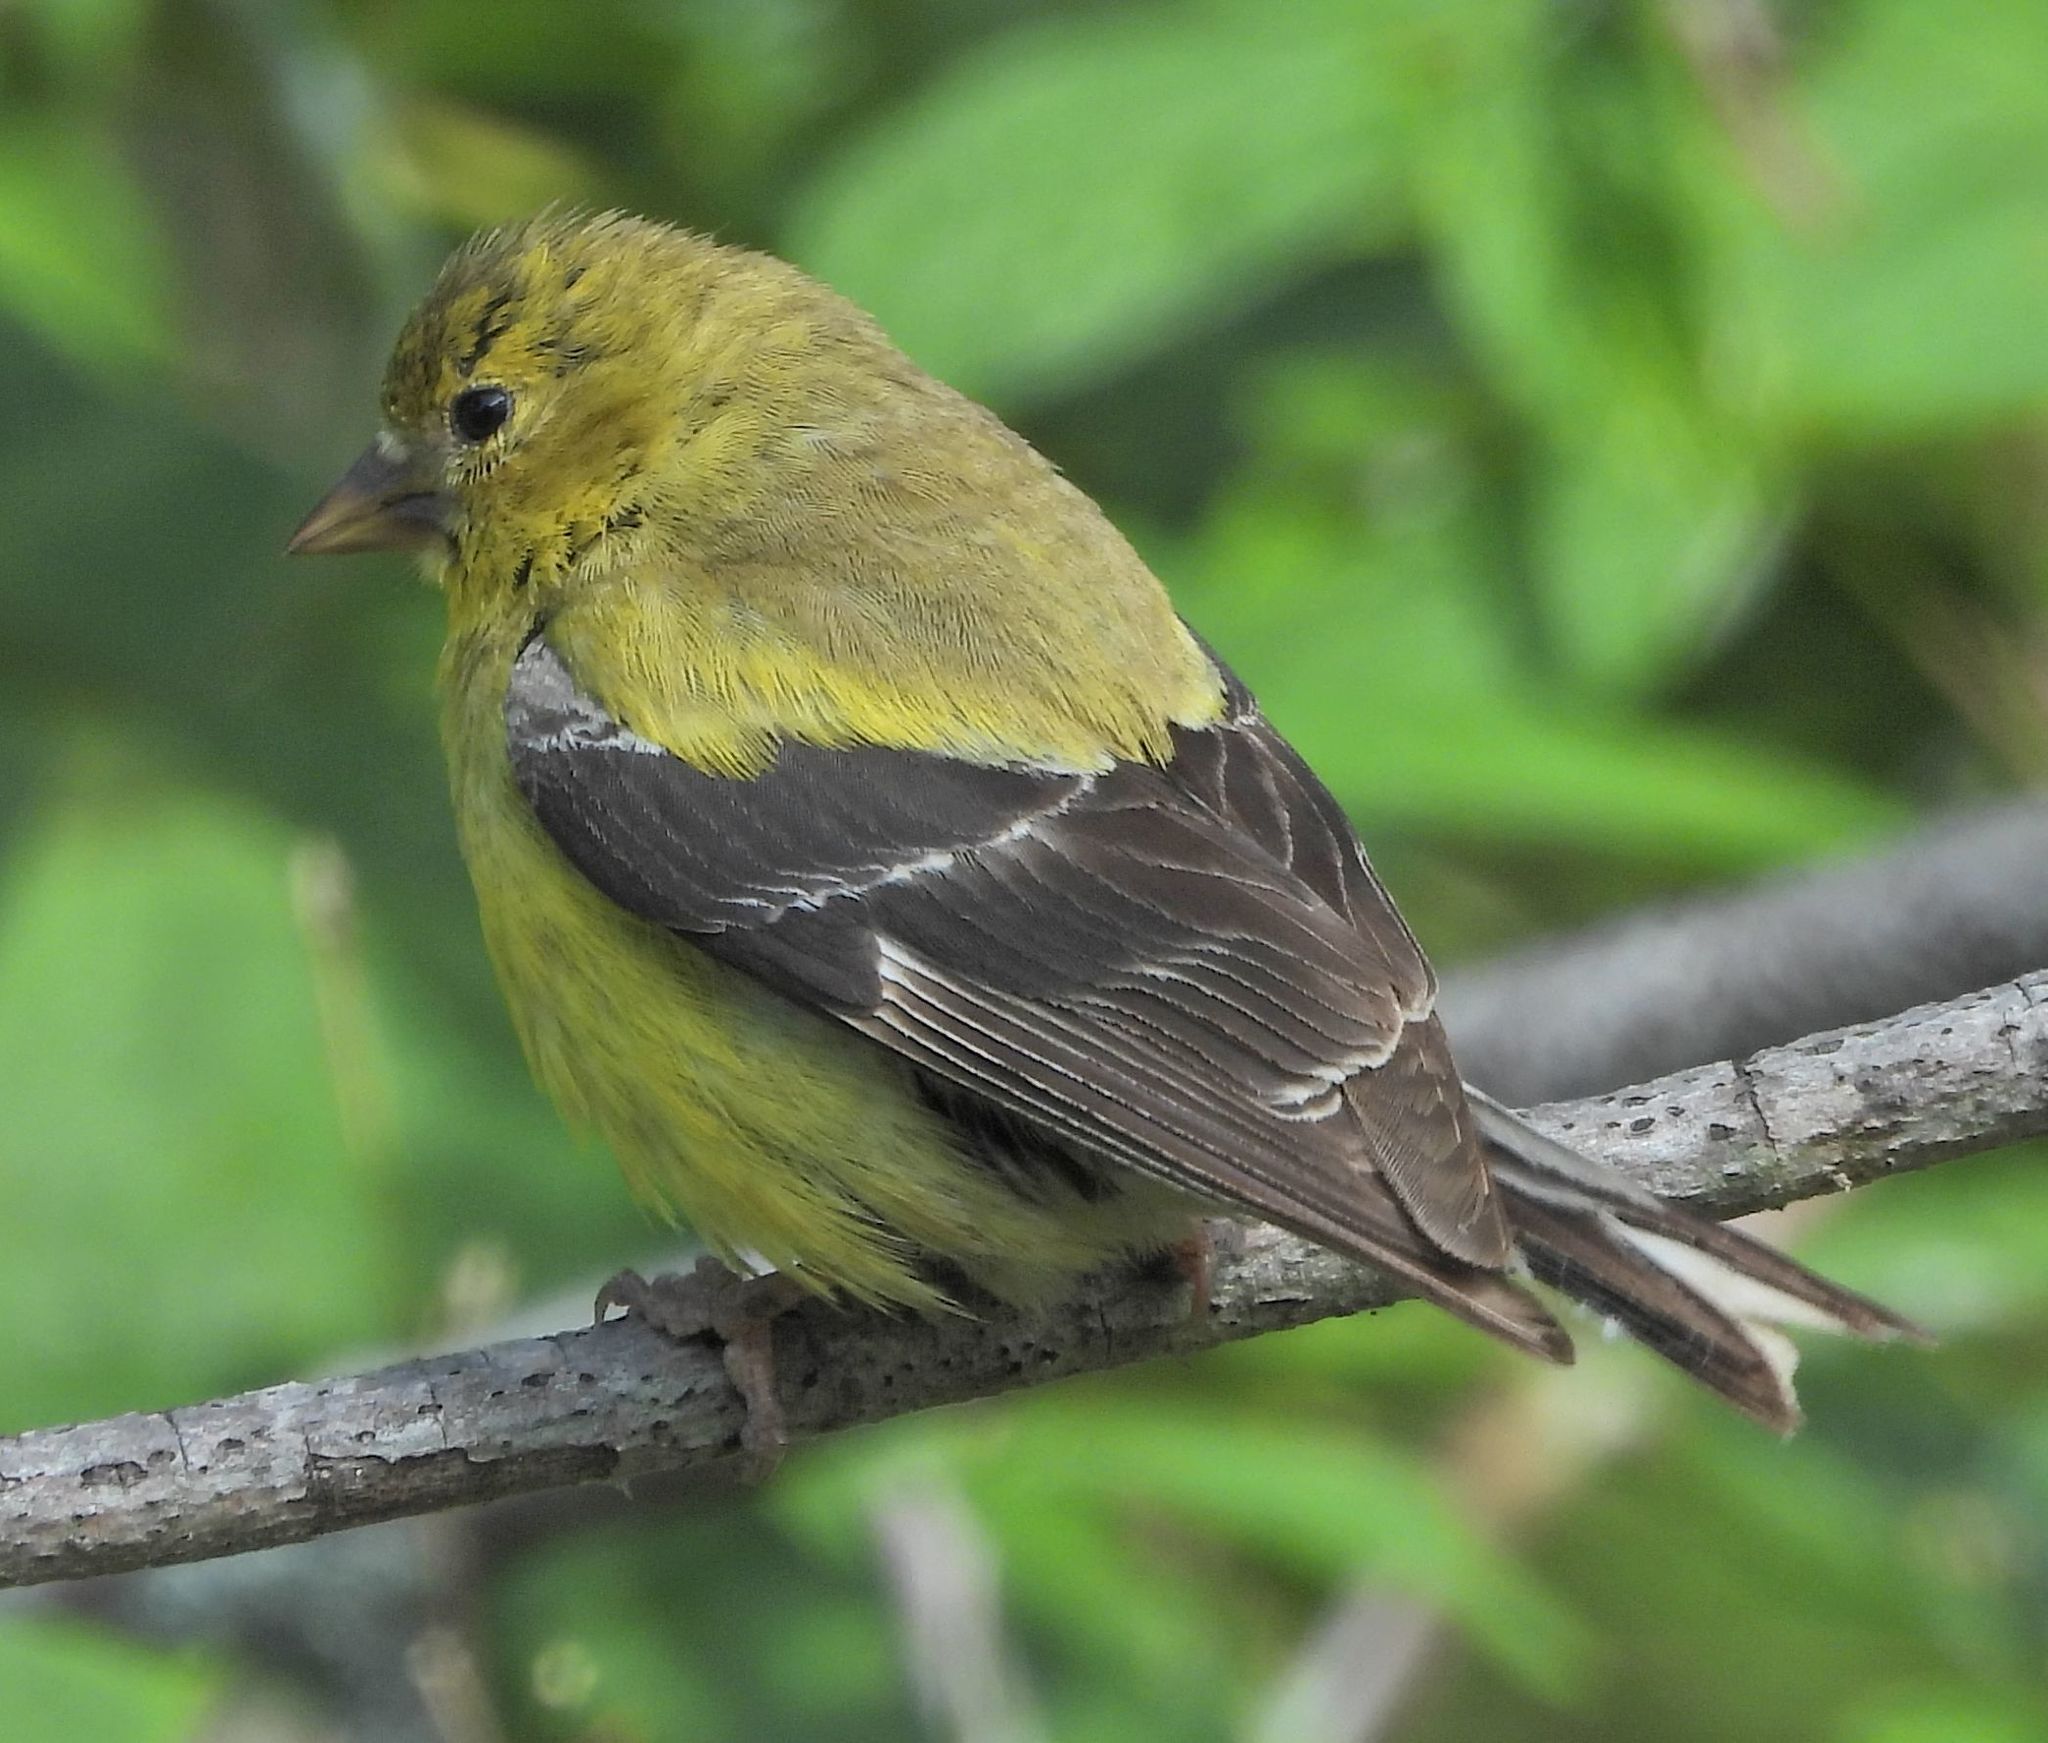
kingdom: Animalia
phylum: Chordata
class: Aves
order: Passeriformes
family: Fringillidae
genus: Spinus
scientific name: Spinus tristis
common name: American goldfinch
